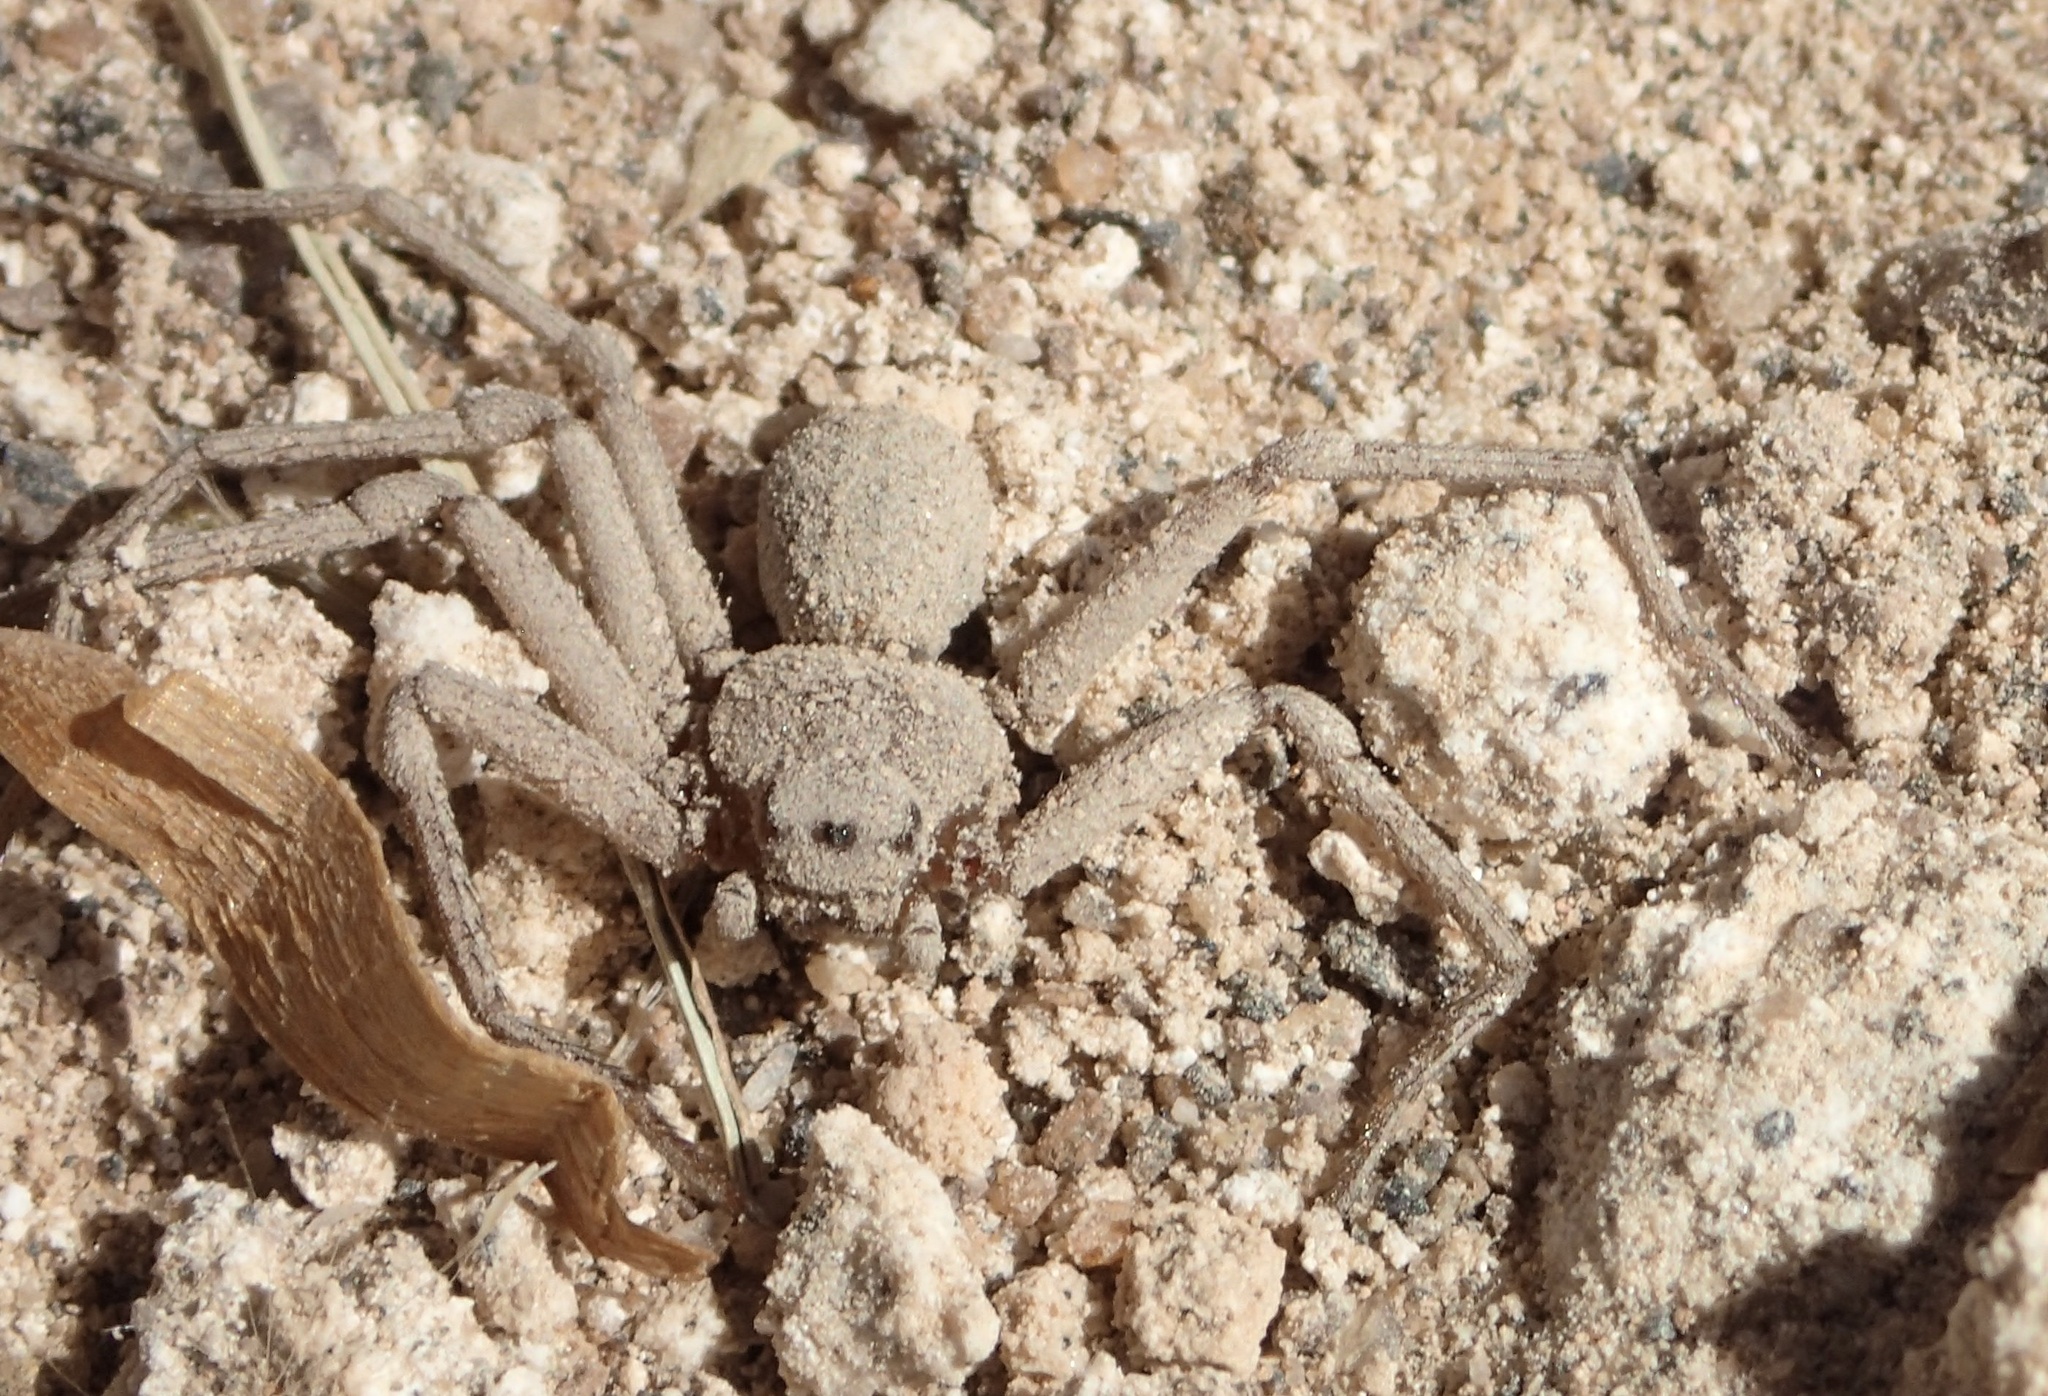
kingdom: Animalia
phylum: Arthropoda
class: Arachnida
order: Araneae
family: Sicariidae
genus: Sicarius
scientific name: Sicarius yurensis
